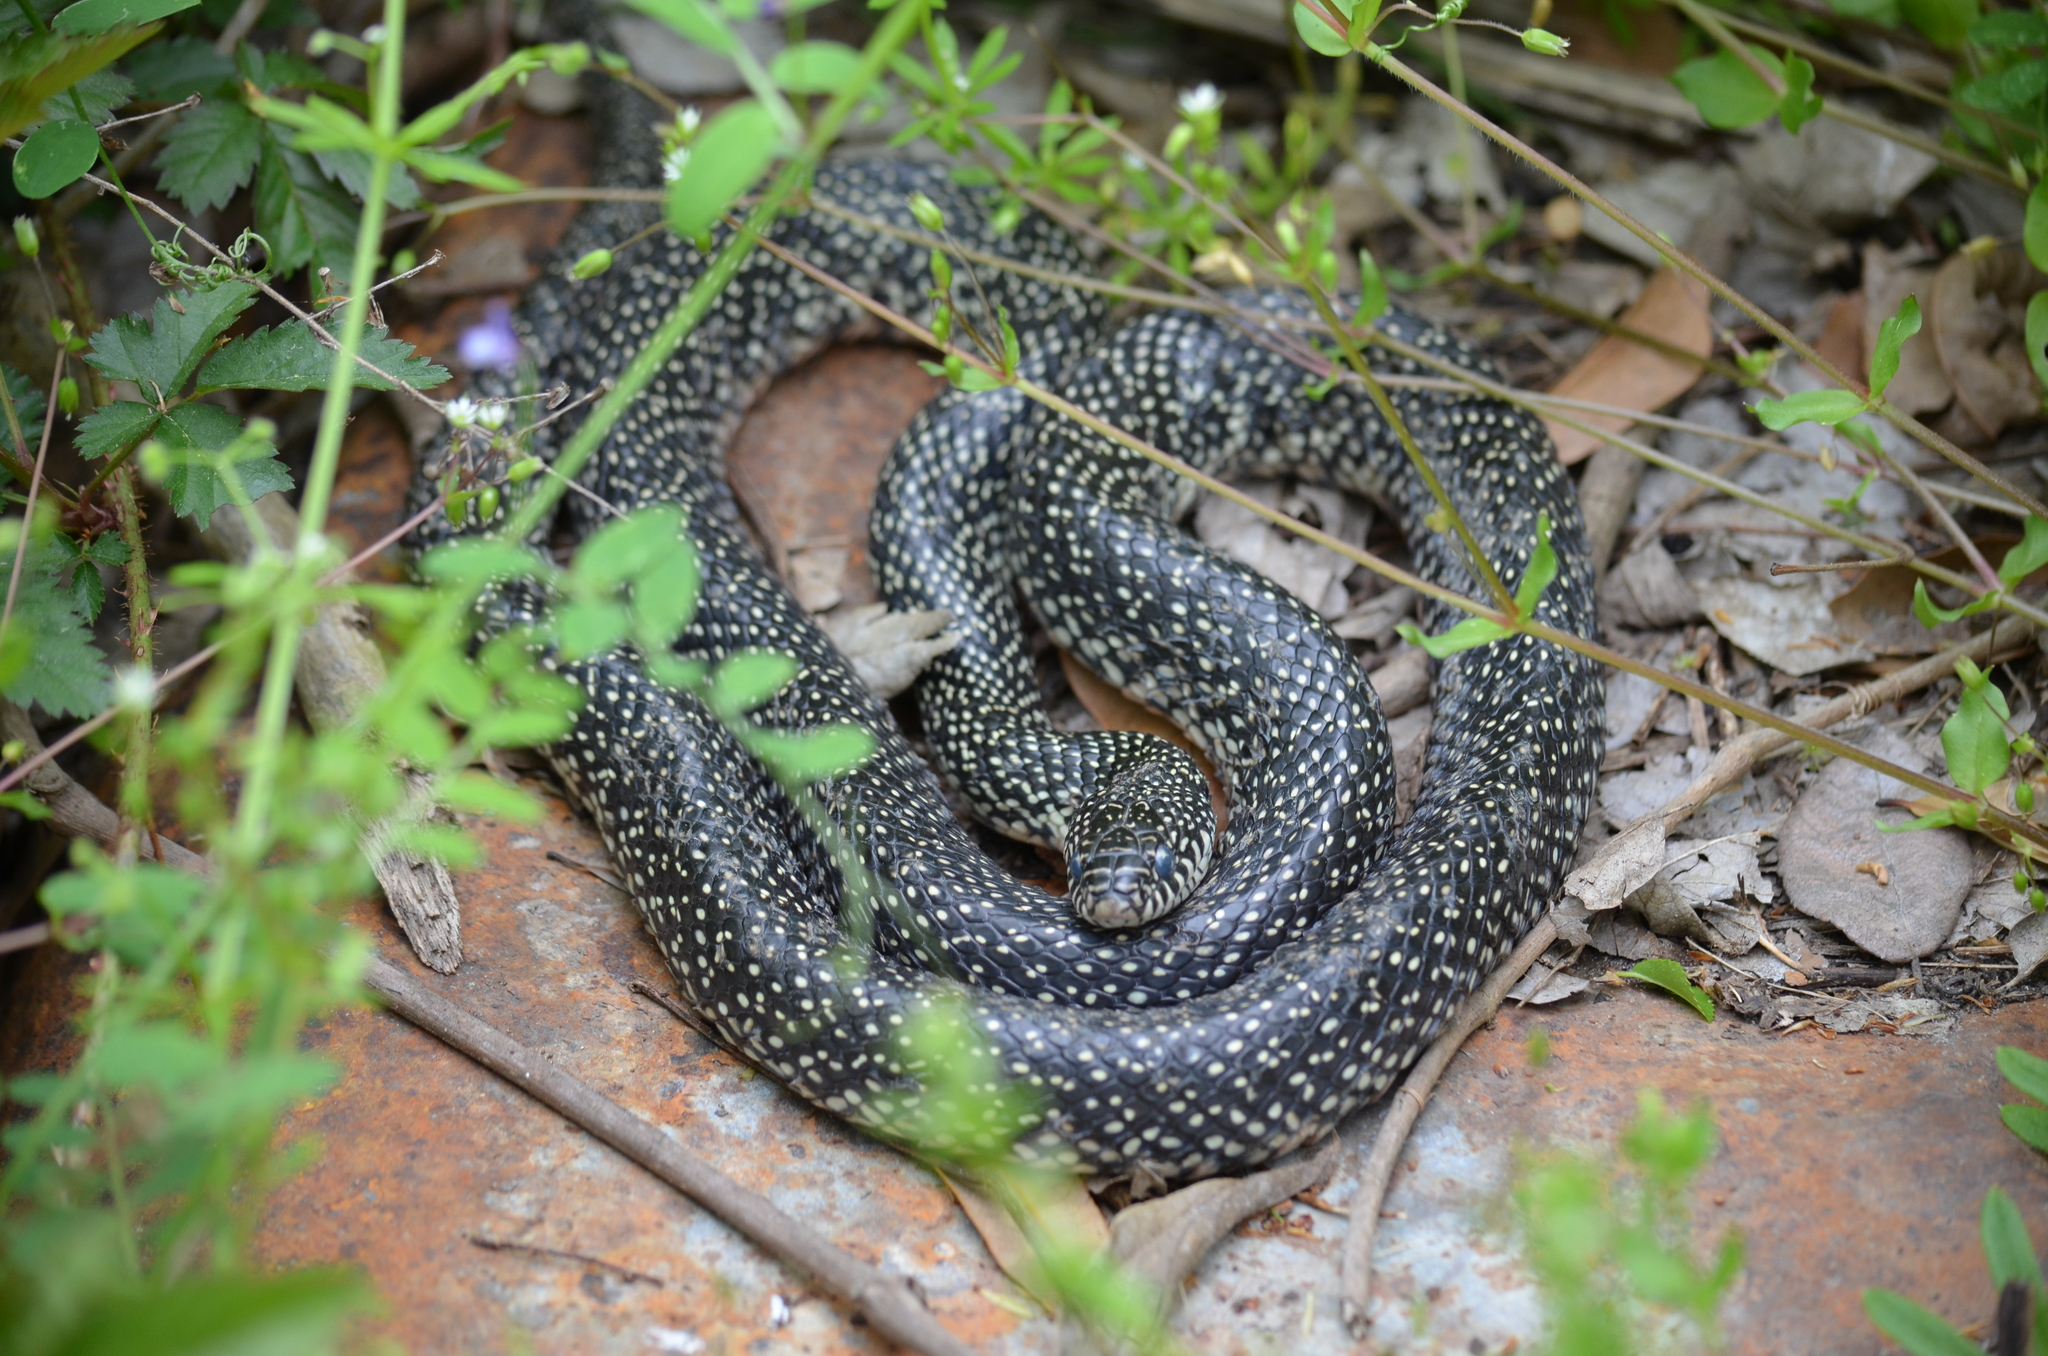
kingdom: Animalia
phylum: Chordata
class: Squamata
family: Colubridae
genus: Lampropeltis
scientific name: Lampropeltis holbrooki
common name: Speckled kingsnake
